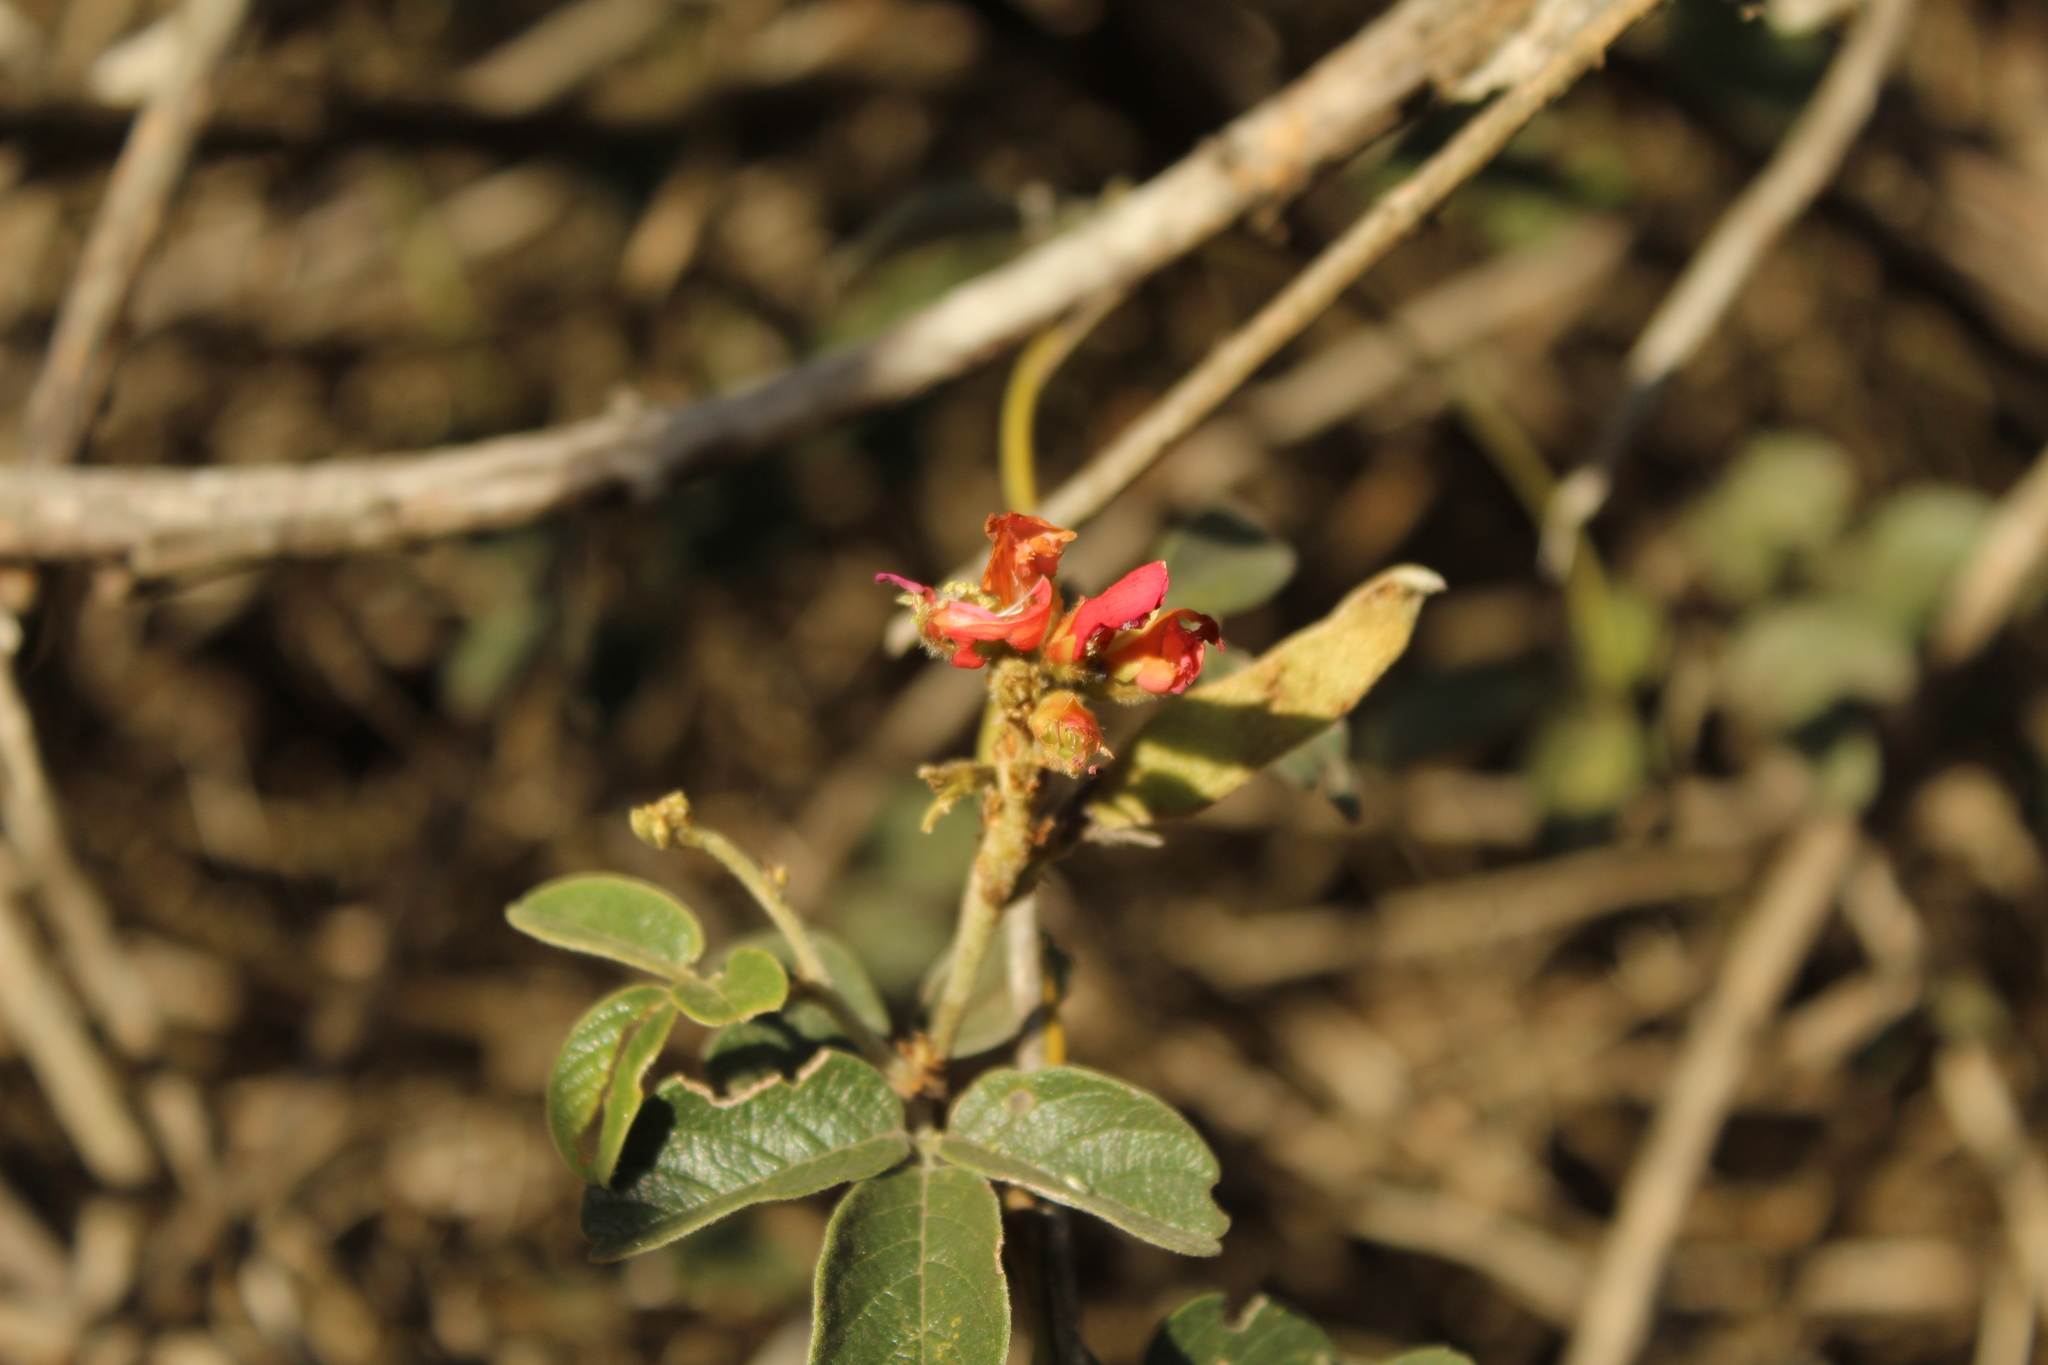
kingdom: Plantae
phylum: Tracheophyta
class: Magnoliopsida
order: Fabales
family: Fabaceae
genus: Galactia
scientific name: Galactia lindenii
